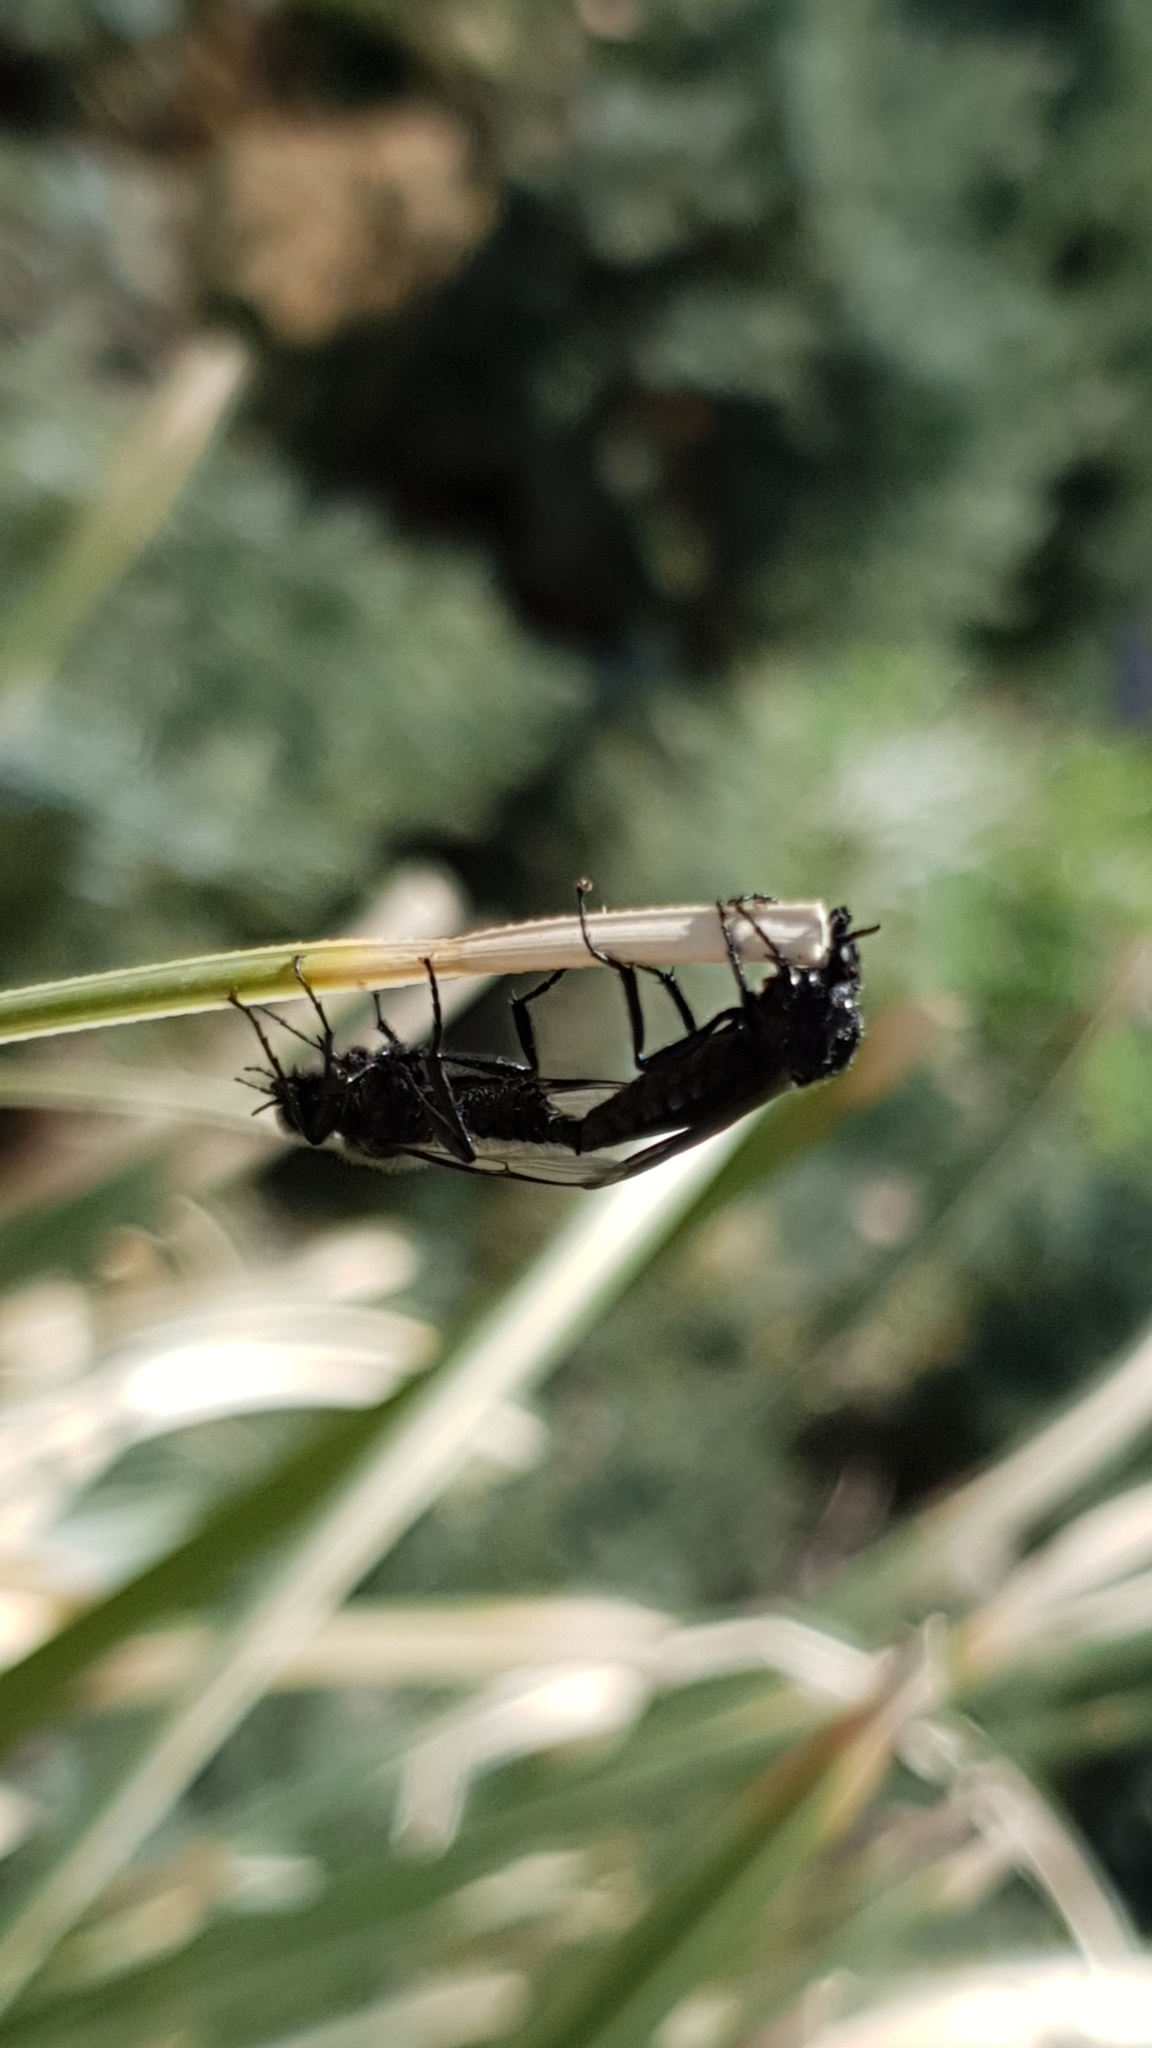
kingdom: Animalia
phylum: Arthropoda
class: Insecta
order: Diptera
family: Bibionidae
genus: Bibio
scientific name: Bibio marci
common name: St marks fly
